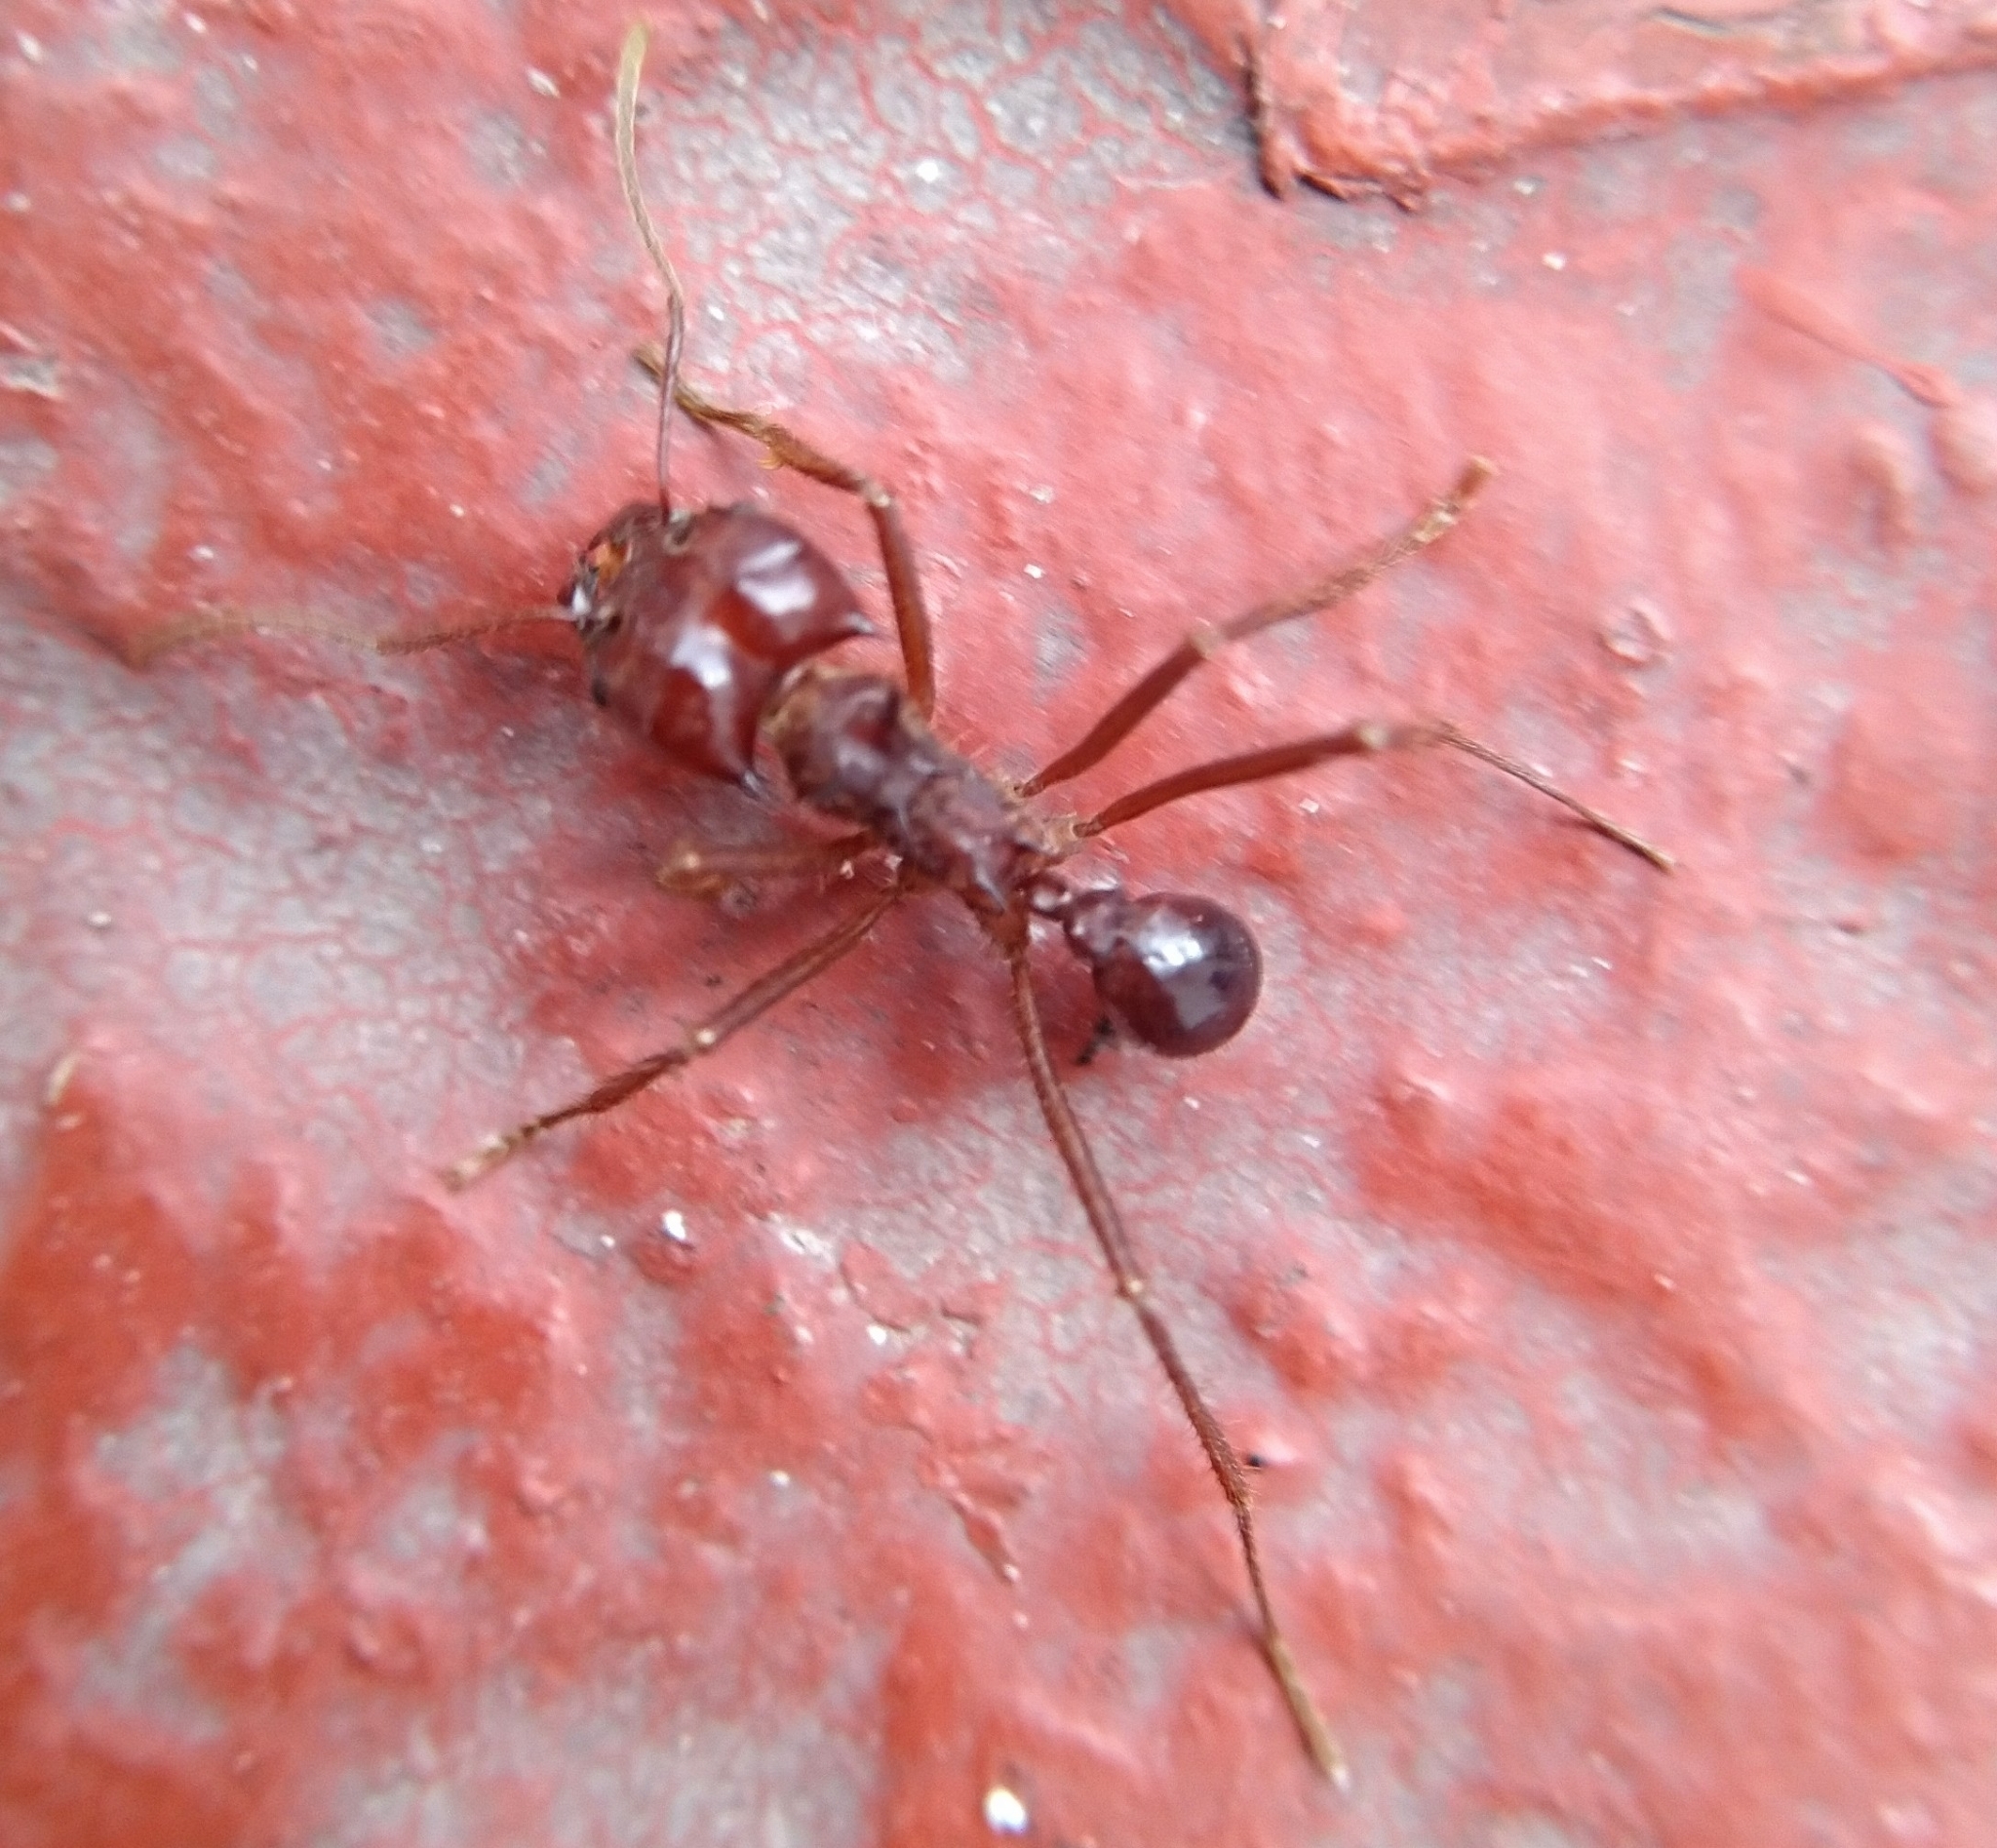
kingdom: Animalia
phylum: Arthropoda
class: Insecta
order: Hymenoptera
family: Formicidae
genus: Atta
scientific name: Atta mexicana
